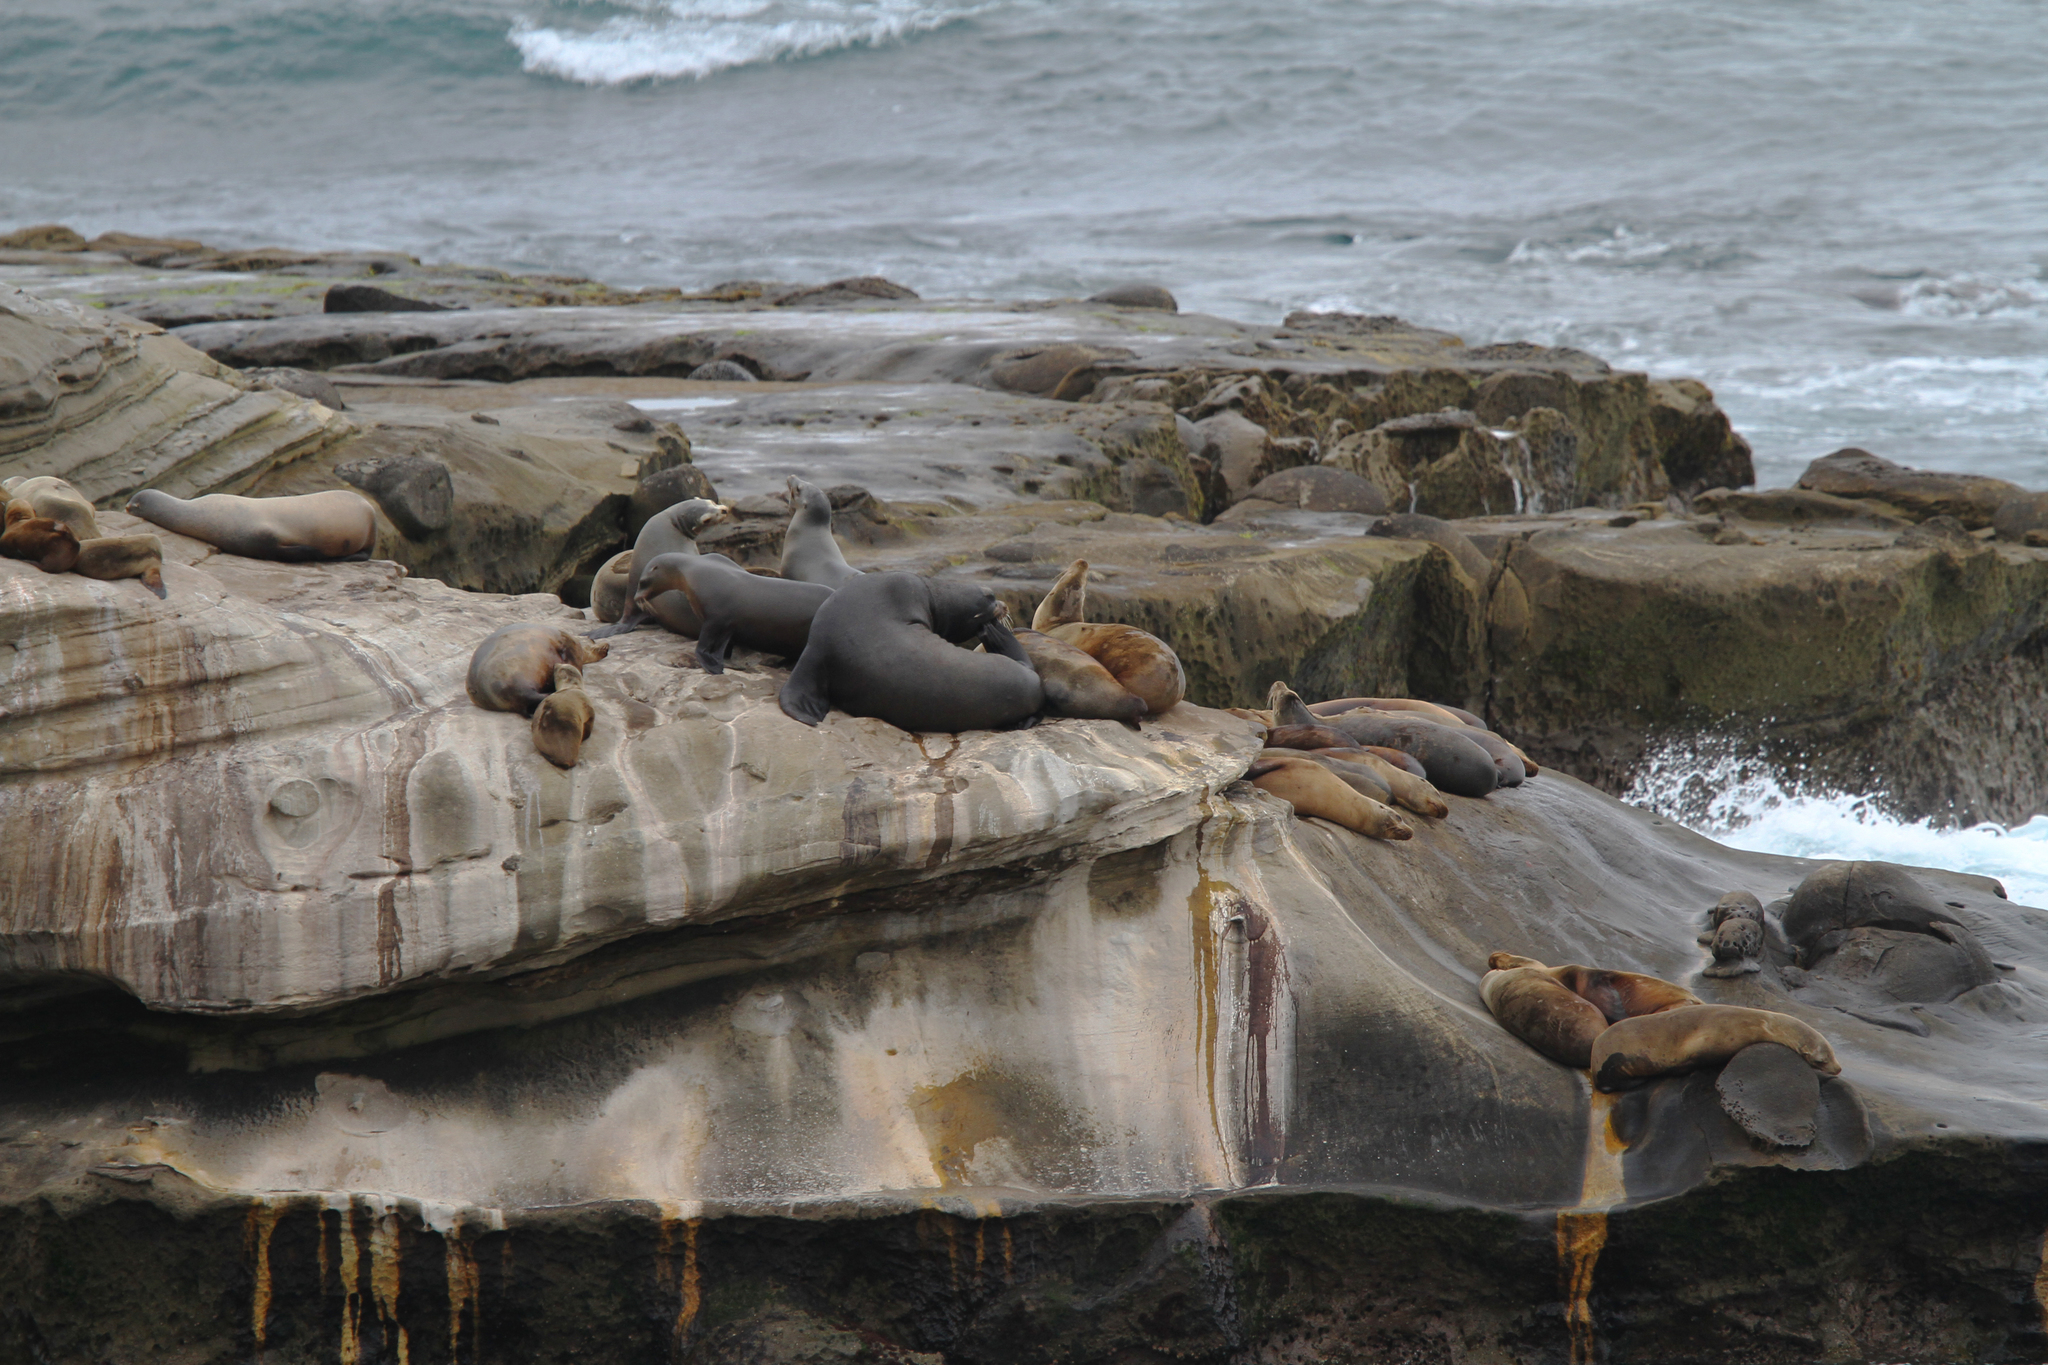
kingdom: Animalia
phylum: Chordata
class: Mammalia
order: Carnivora
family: Otariidae
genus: Zalophus
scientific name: Zalophus californianus
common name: California sea lion
